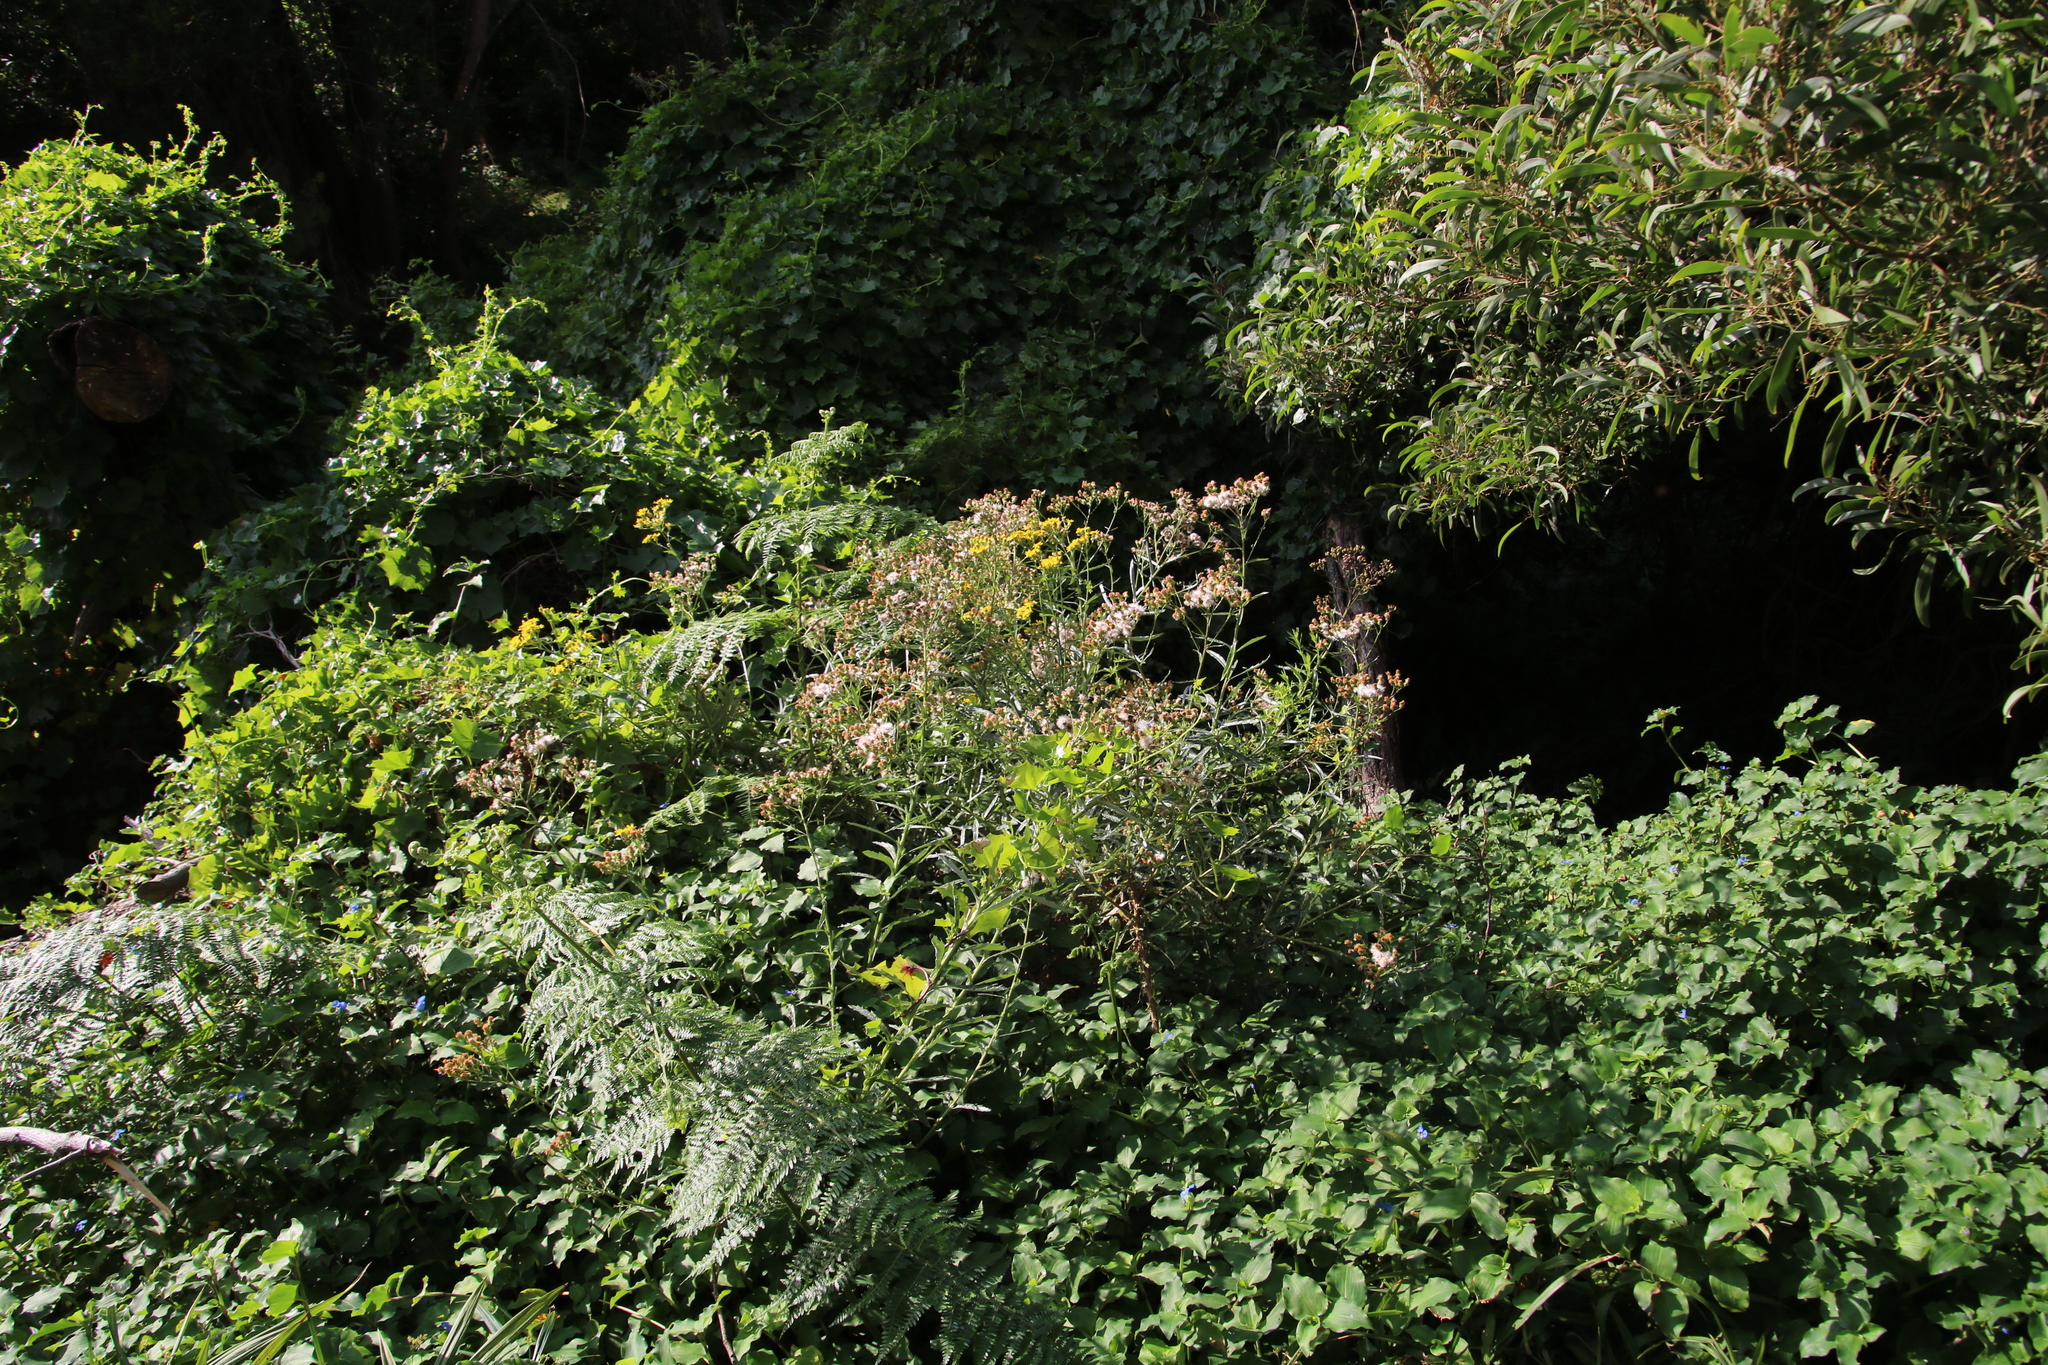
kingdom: Plantae
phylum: Tracheophyta
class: Magnoliopsida
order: Asterales
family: Asteraceae
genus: Senecio
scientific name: Senecio pterophorus
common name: Shoddy ragwort
